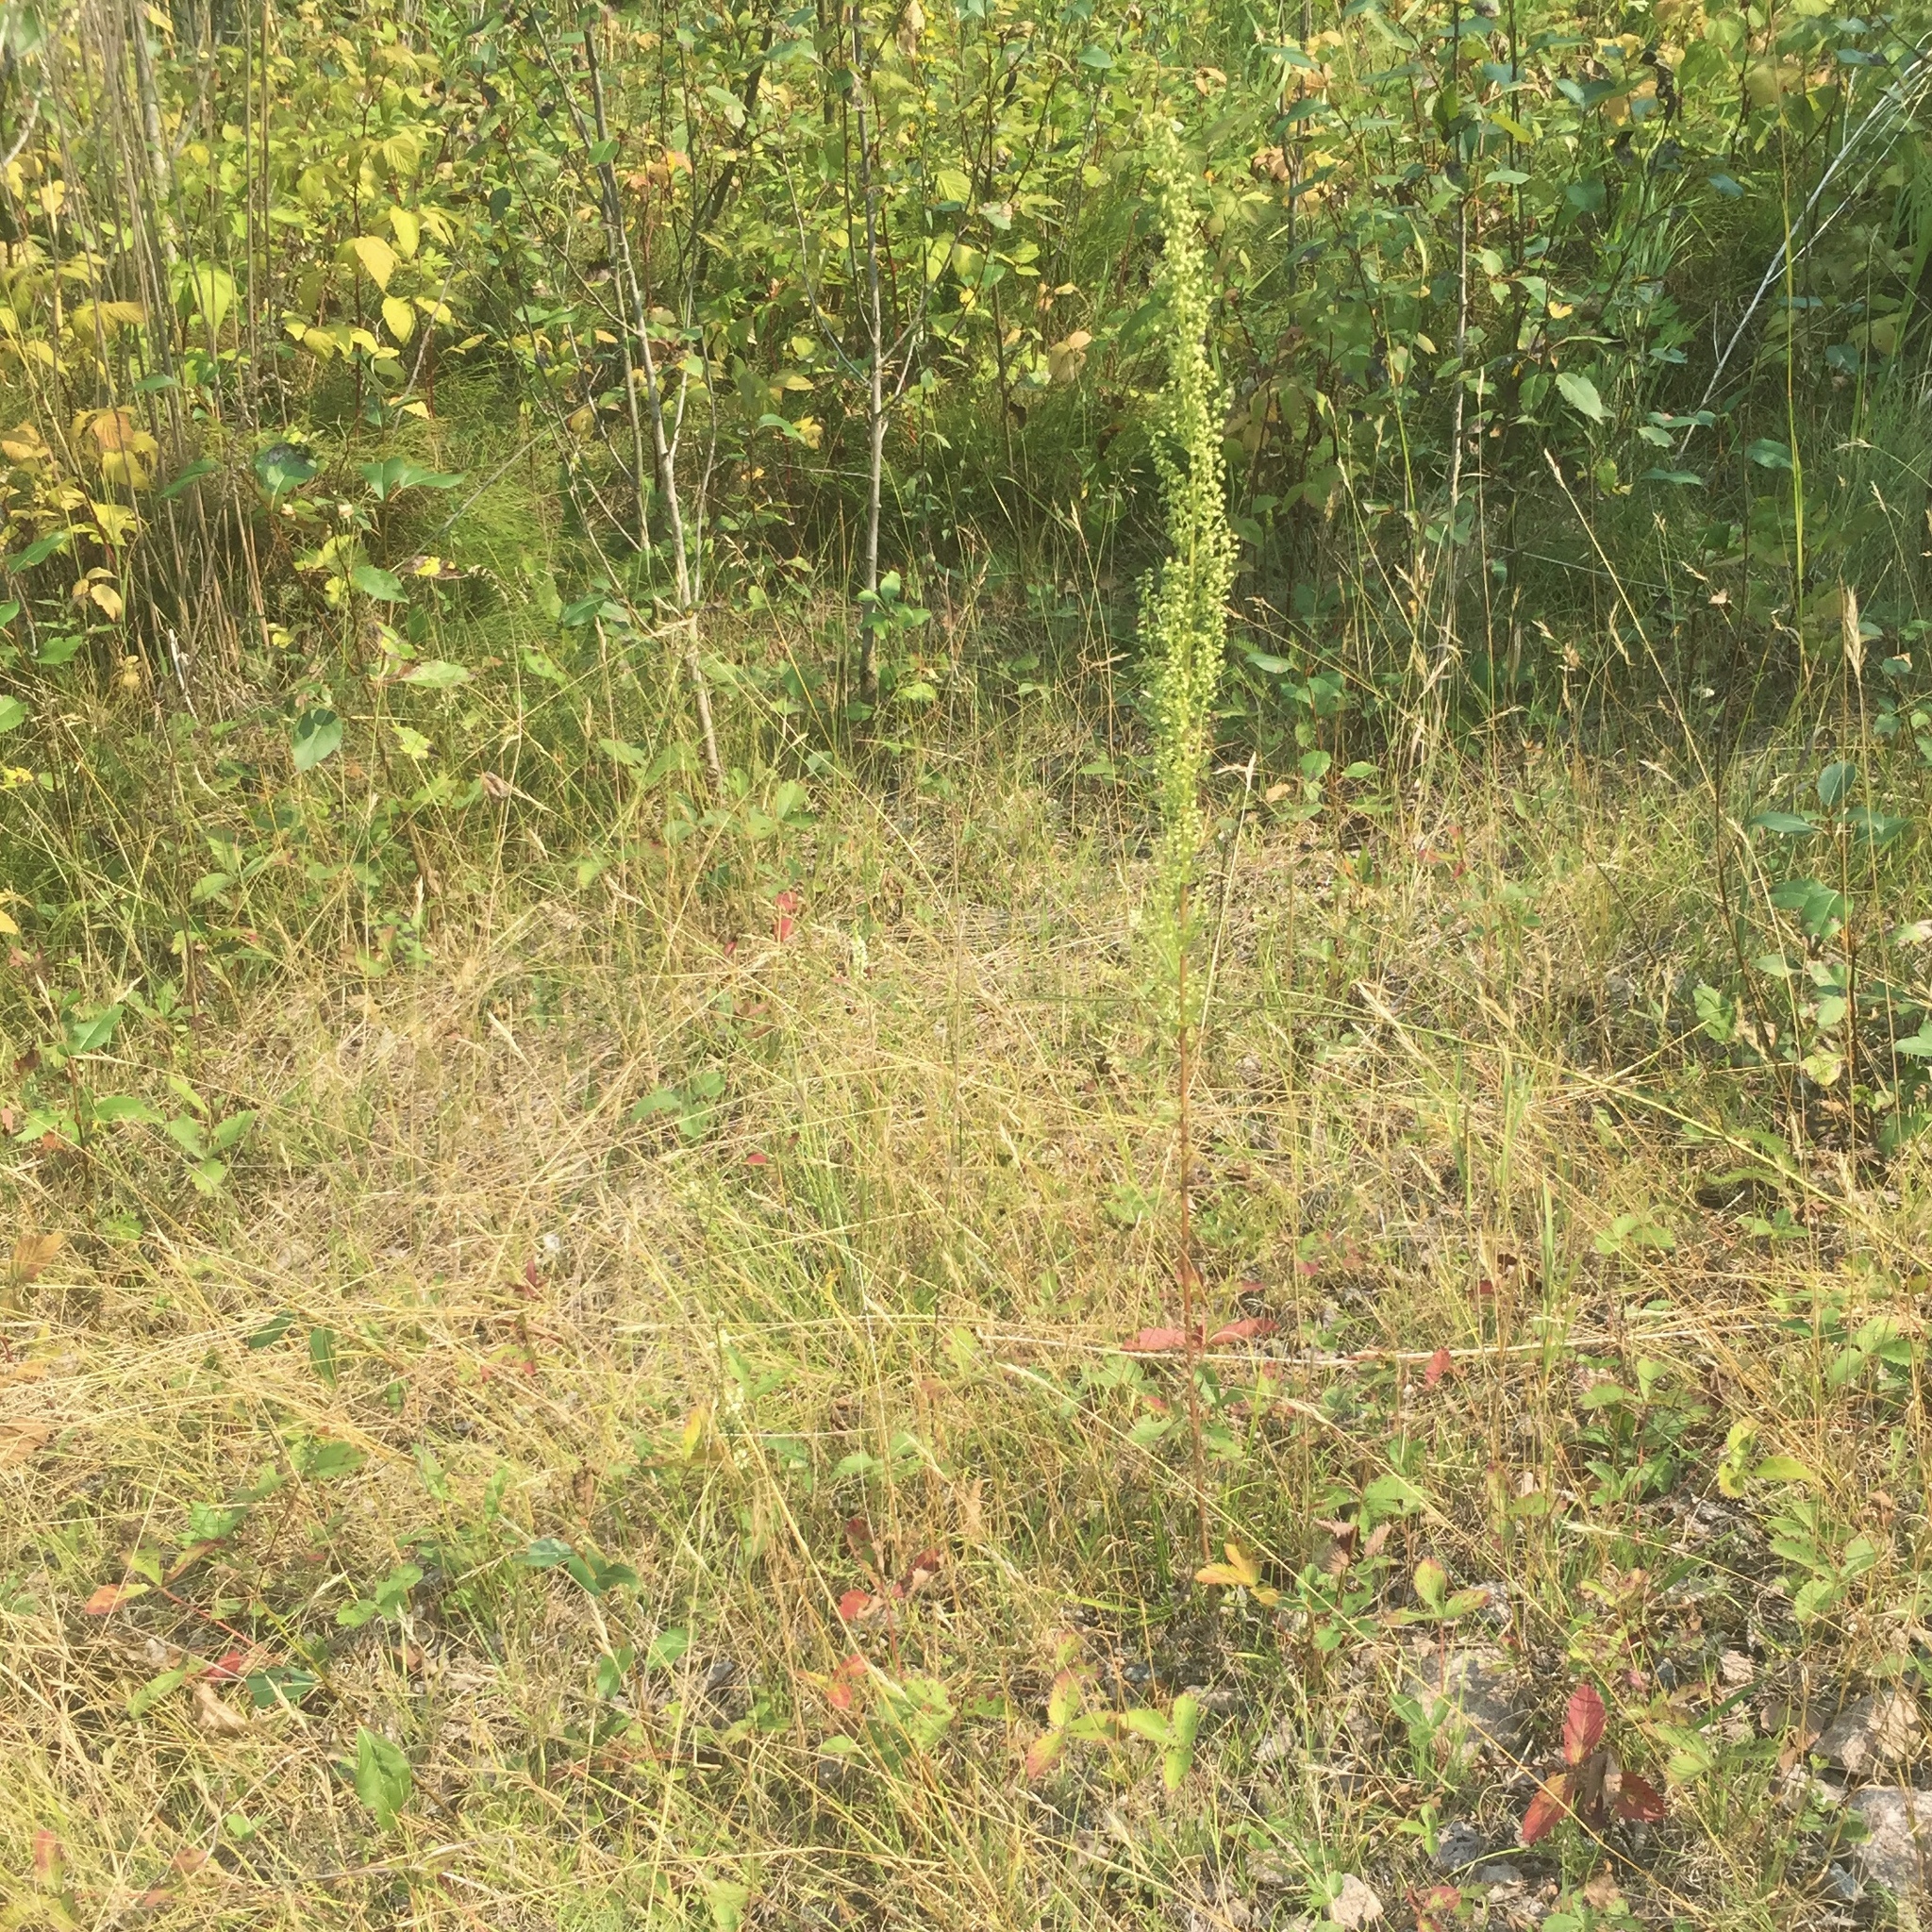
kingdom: Plantae
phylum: Tracheophyta
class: Magnoliopsida
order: Asterales
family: Asteraceae
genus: Artemisia
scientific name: Artemisia biennis
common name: Biennial wormwood
